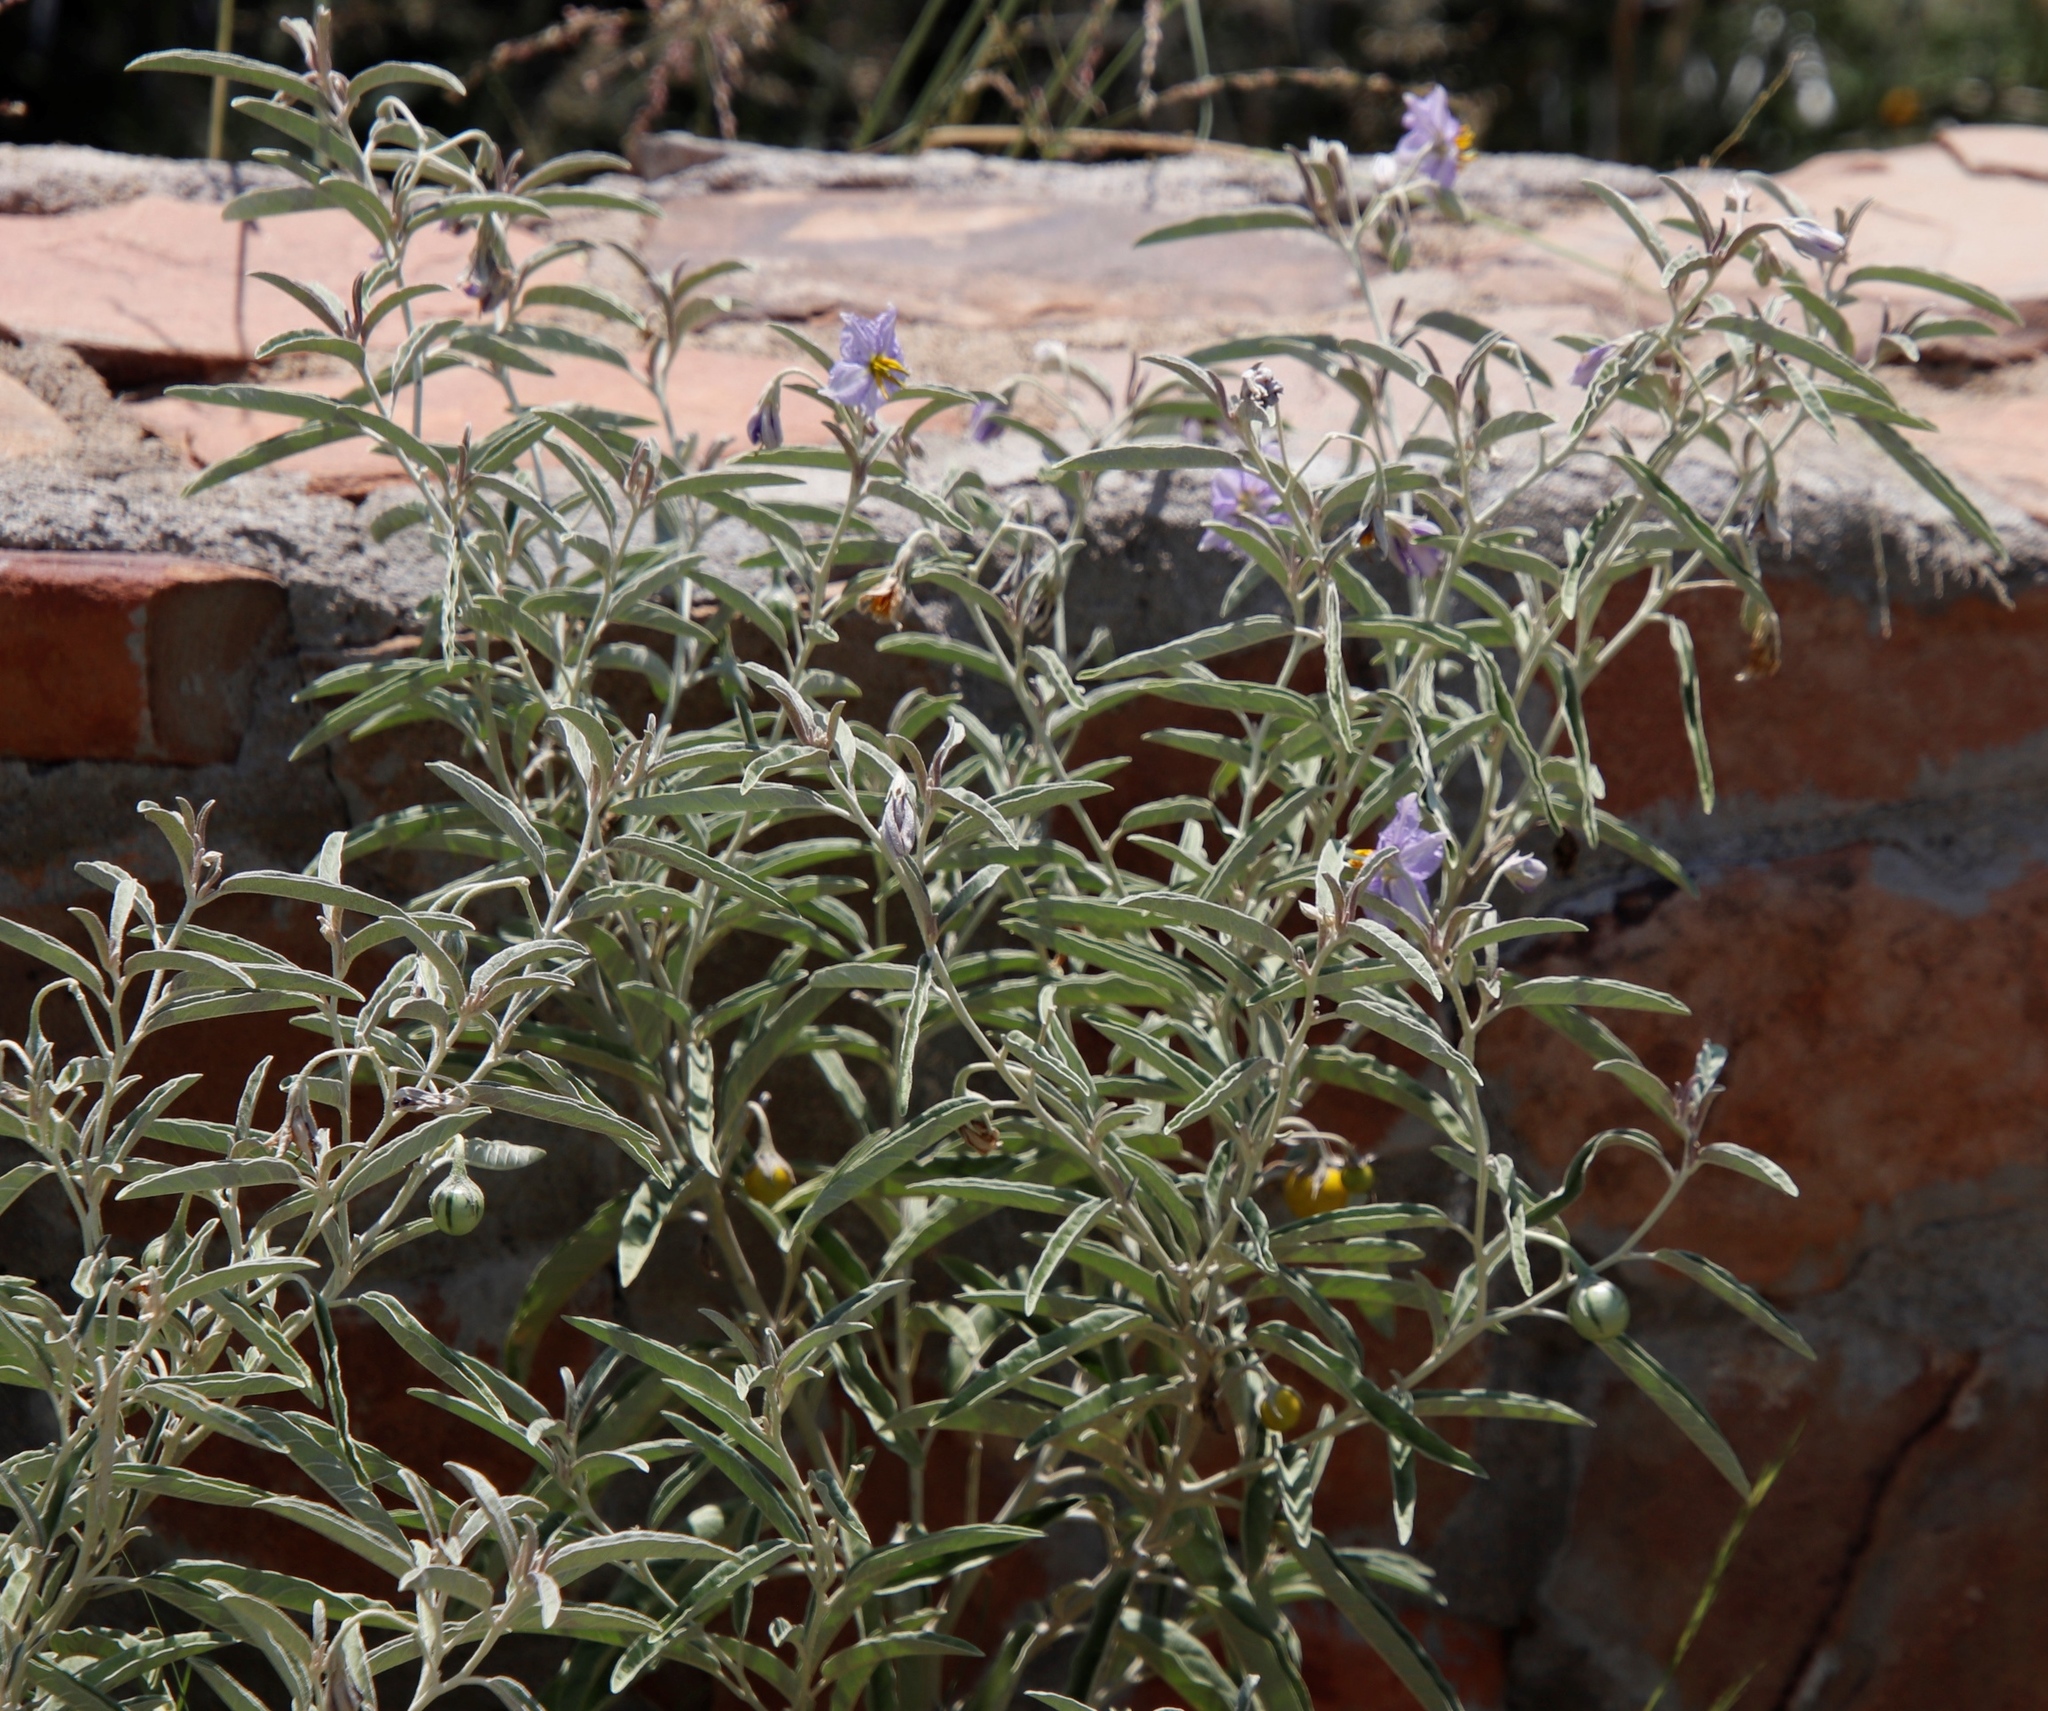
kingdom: Plantae
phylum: Tracheophyta
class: Magnoliopsida
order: Solanales
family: Solanaceae
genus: Solanum
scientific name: Solanum elaeagnifolium
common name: Silverleaf nightshade
